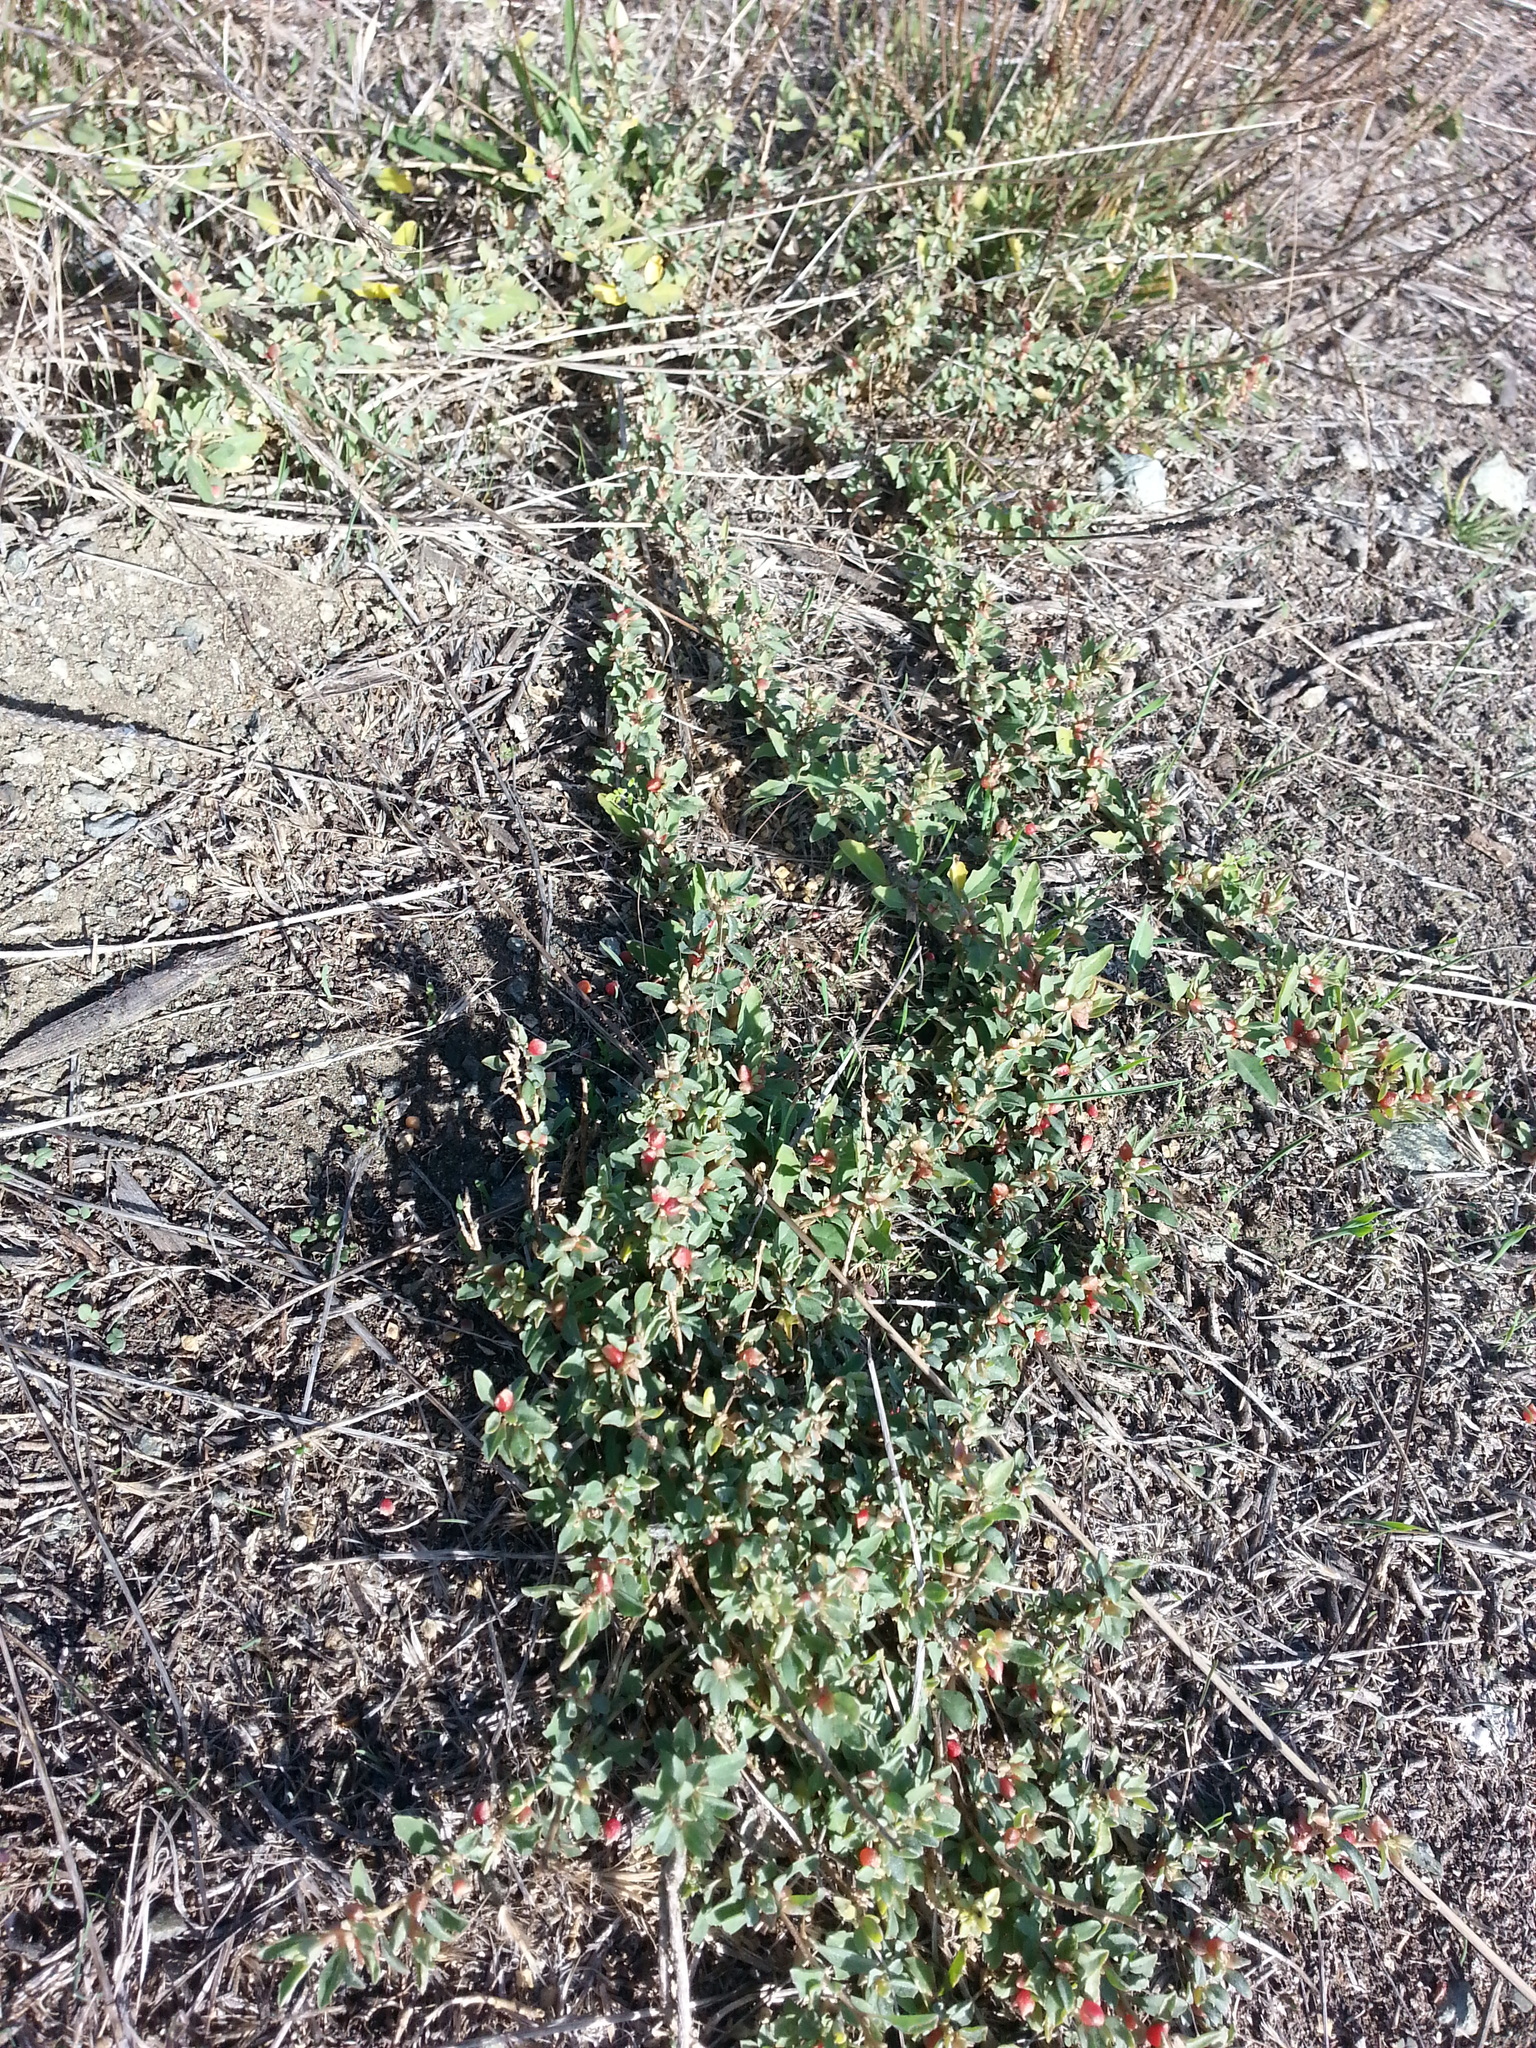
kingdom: Plantae
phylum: Tracheophyta
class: Magnoliopsida
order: Caryophyllales
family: Amaranthaceae
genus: Atriplex
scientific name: Atriplex semibaccata
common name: Australian saltbush
